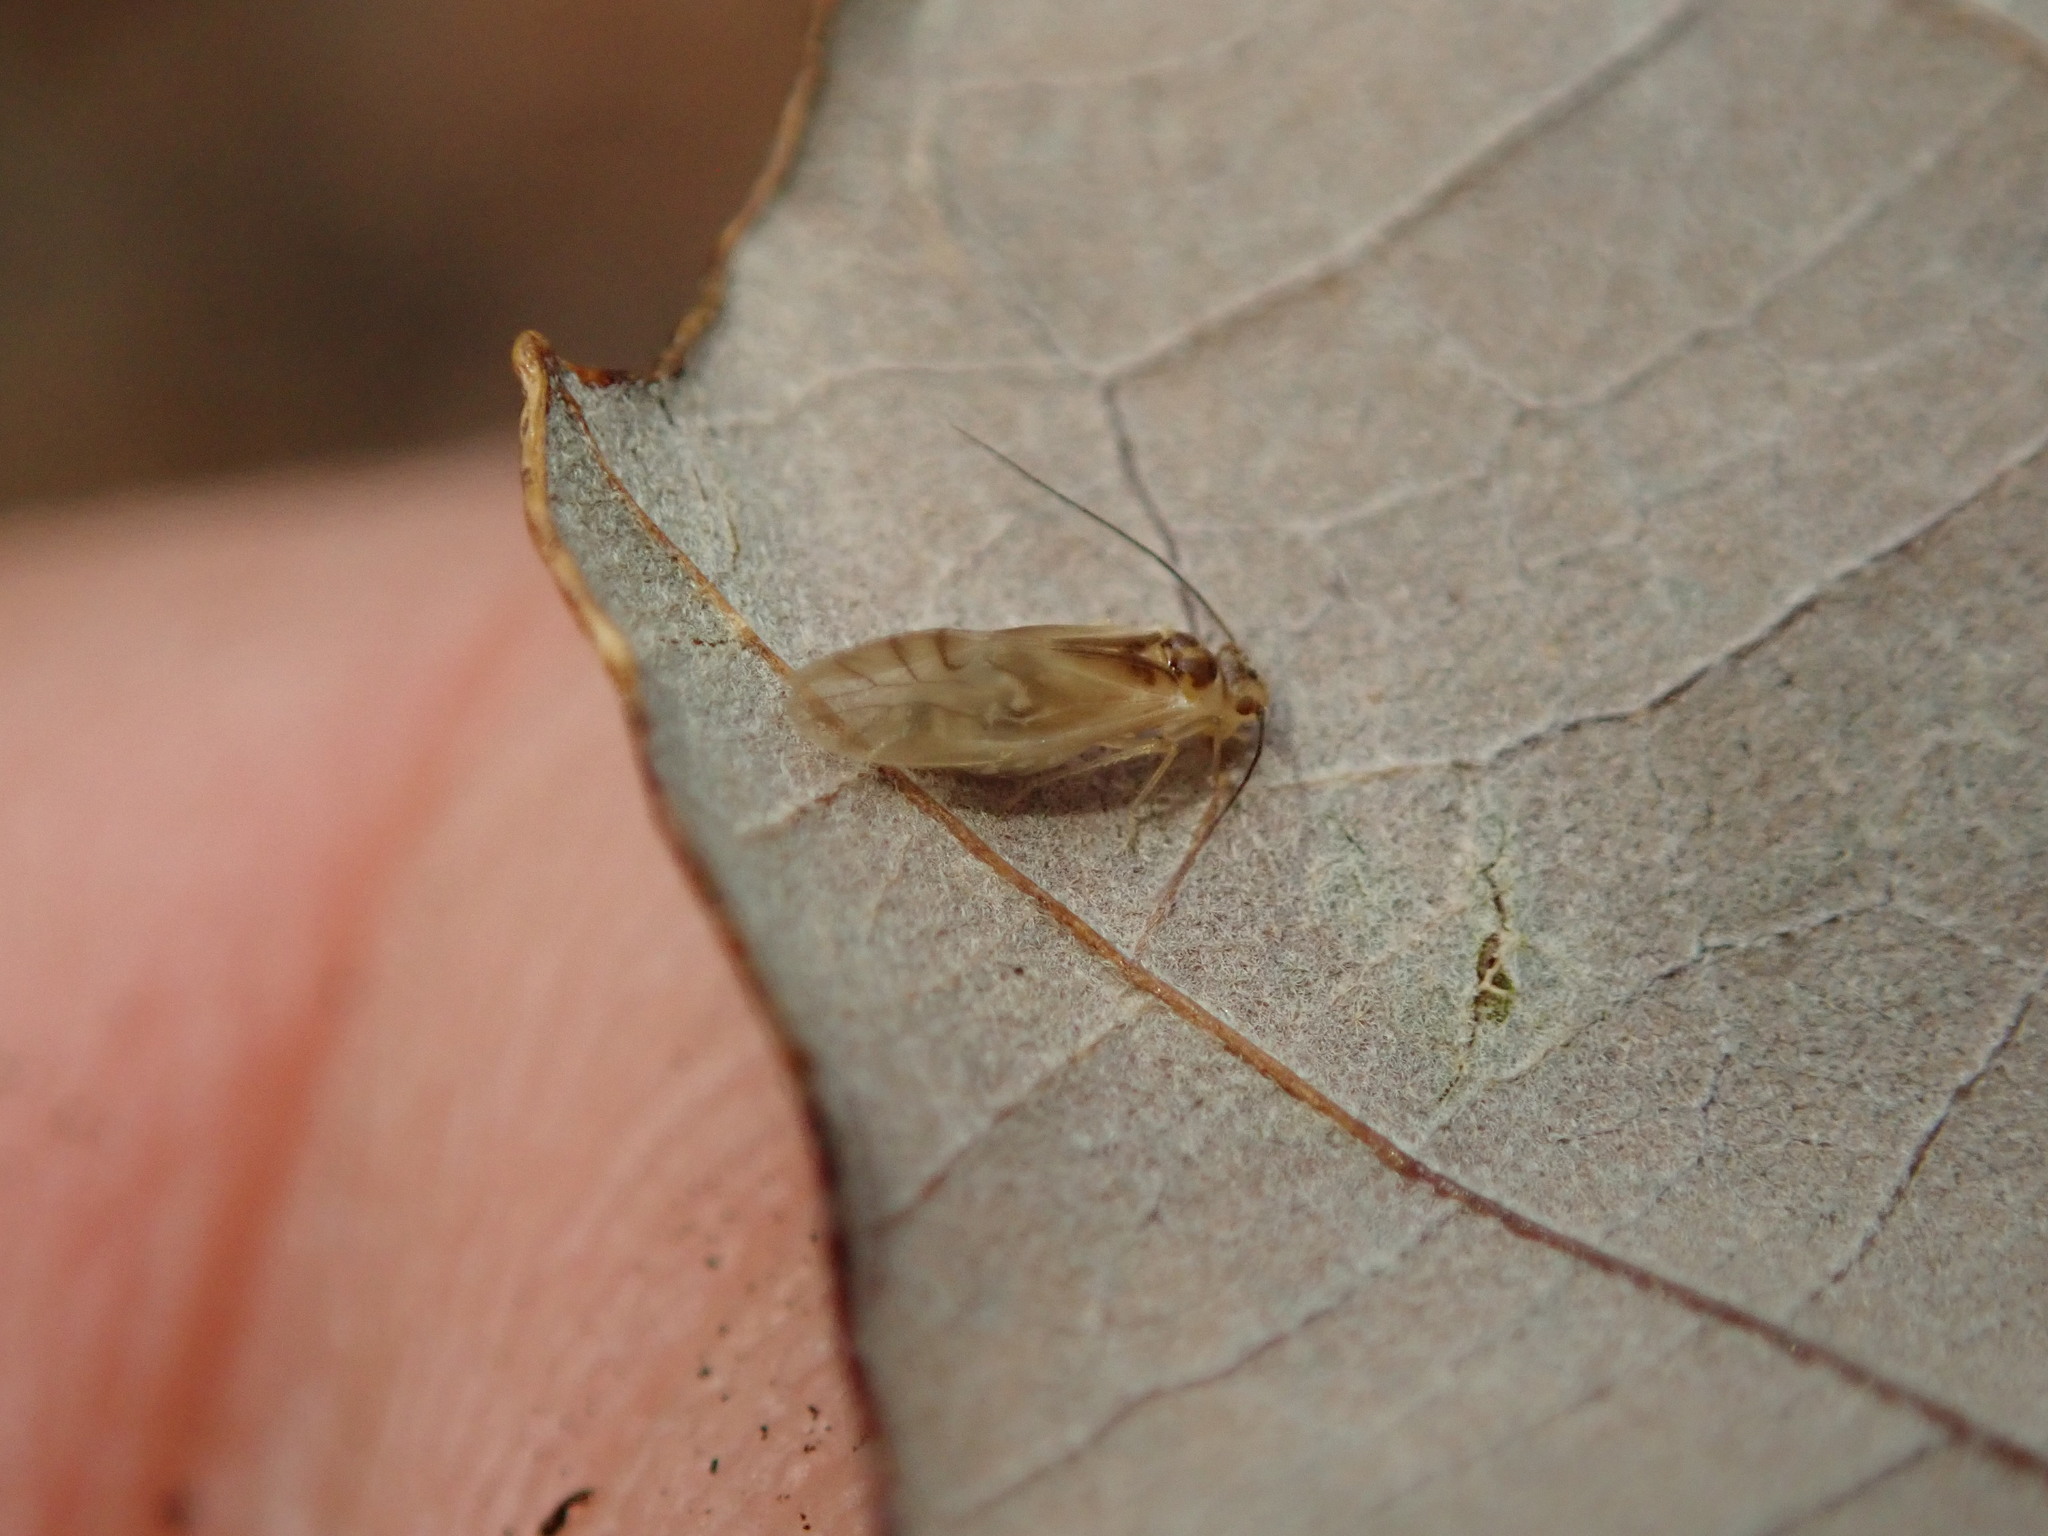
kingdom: Animalia
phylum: Arthropoda
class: Insecta
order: Psocodea
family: Caeciliusidae
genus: Valenzuela
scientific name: Valenzuela flavidus
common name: Yellow barklouse
